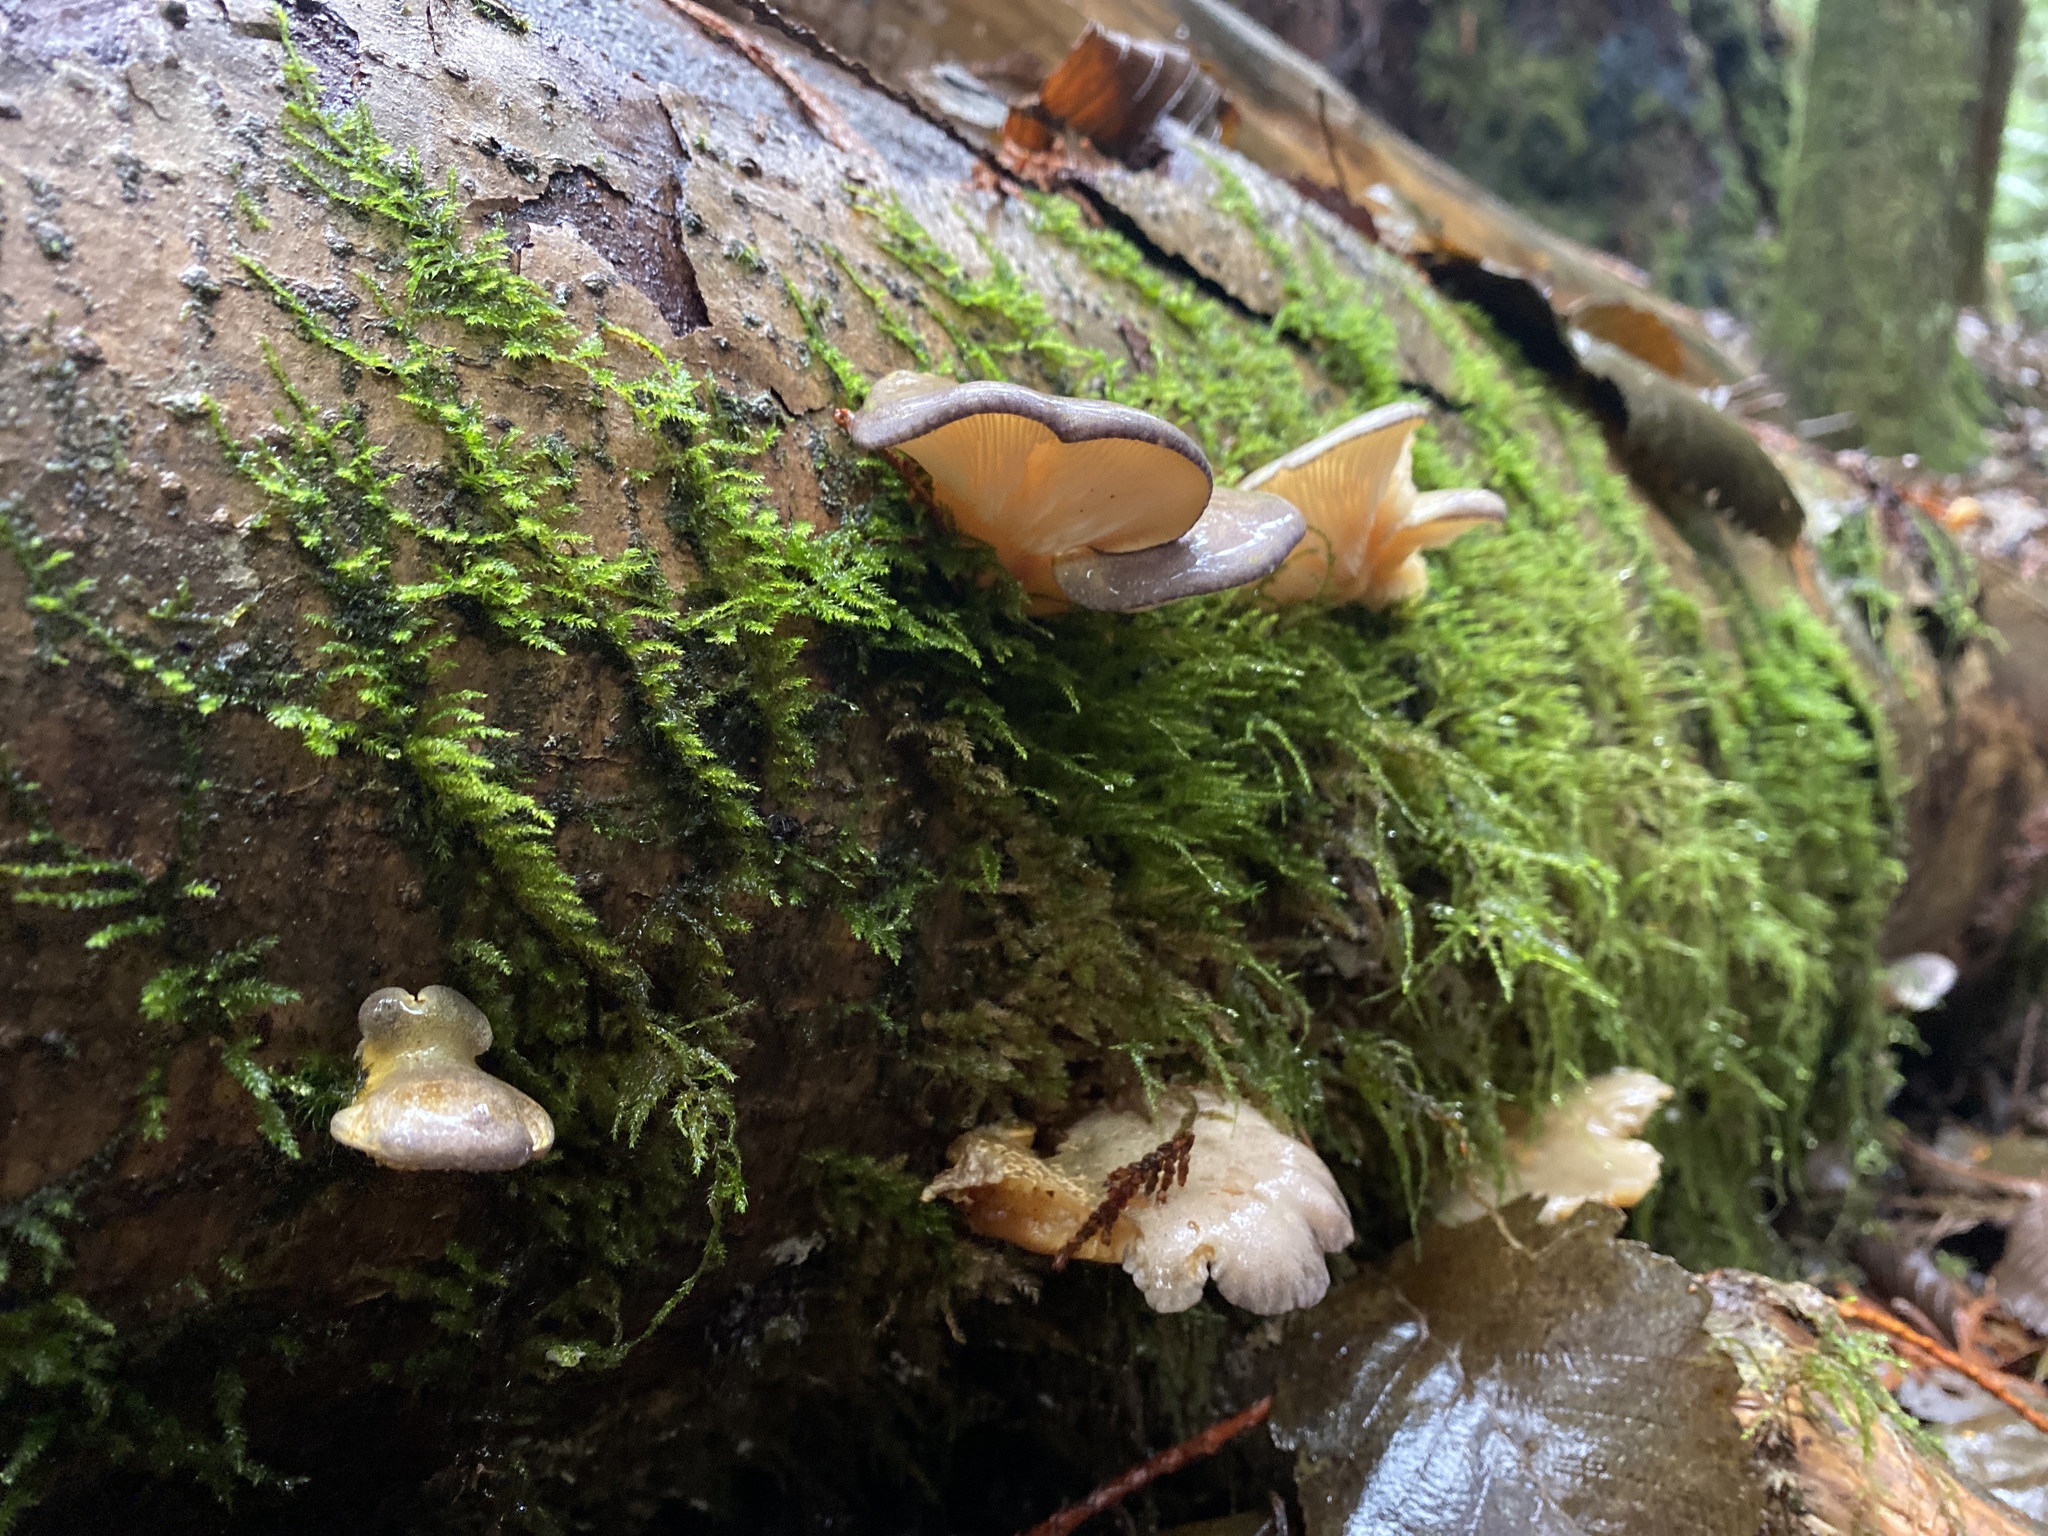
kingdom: Fungi
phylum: Basidiomycota
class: Agaricomycetes
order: Agaricales
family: Sarcomyxaceae
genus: Sarcomyxa
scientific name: Sarcomyxa serotina
